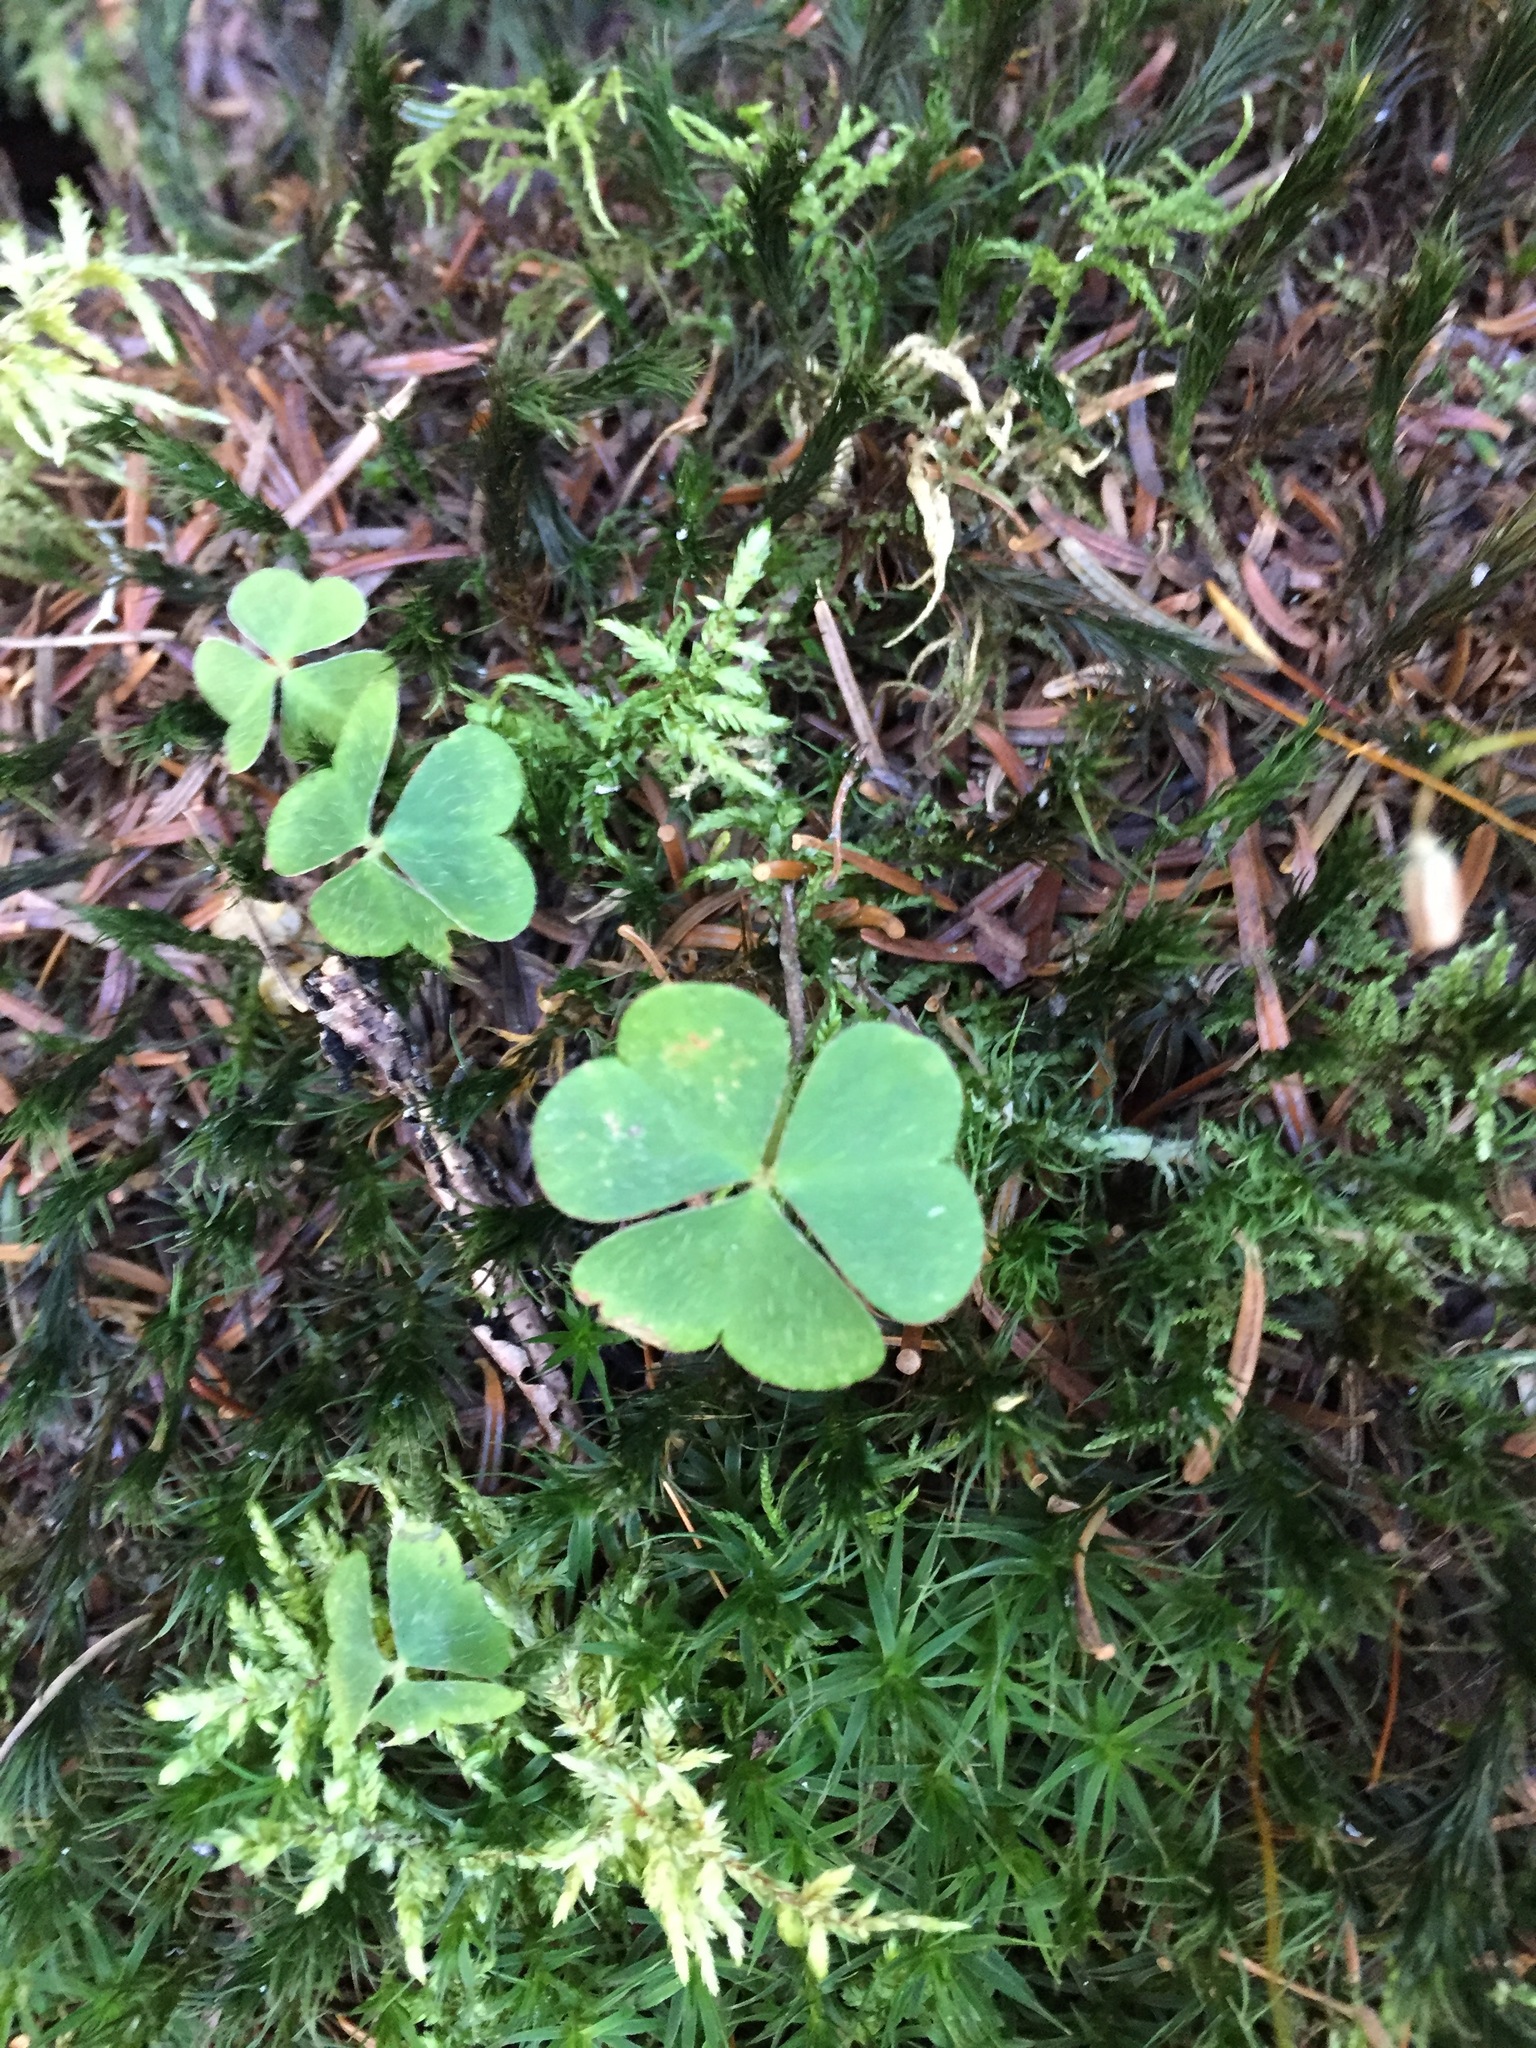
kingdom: Plantae
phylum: Tracheophyta
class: Magnoliopsida
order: Oxalidales
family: Oxalidaceae
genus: Oxalis
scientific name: Oxalis montana
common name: American wood-sorrel
